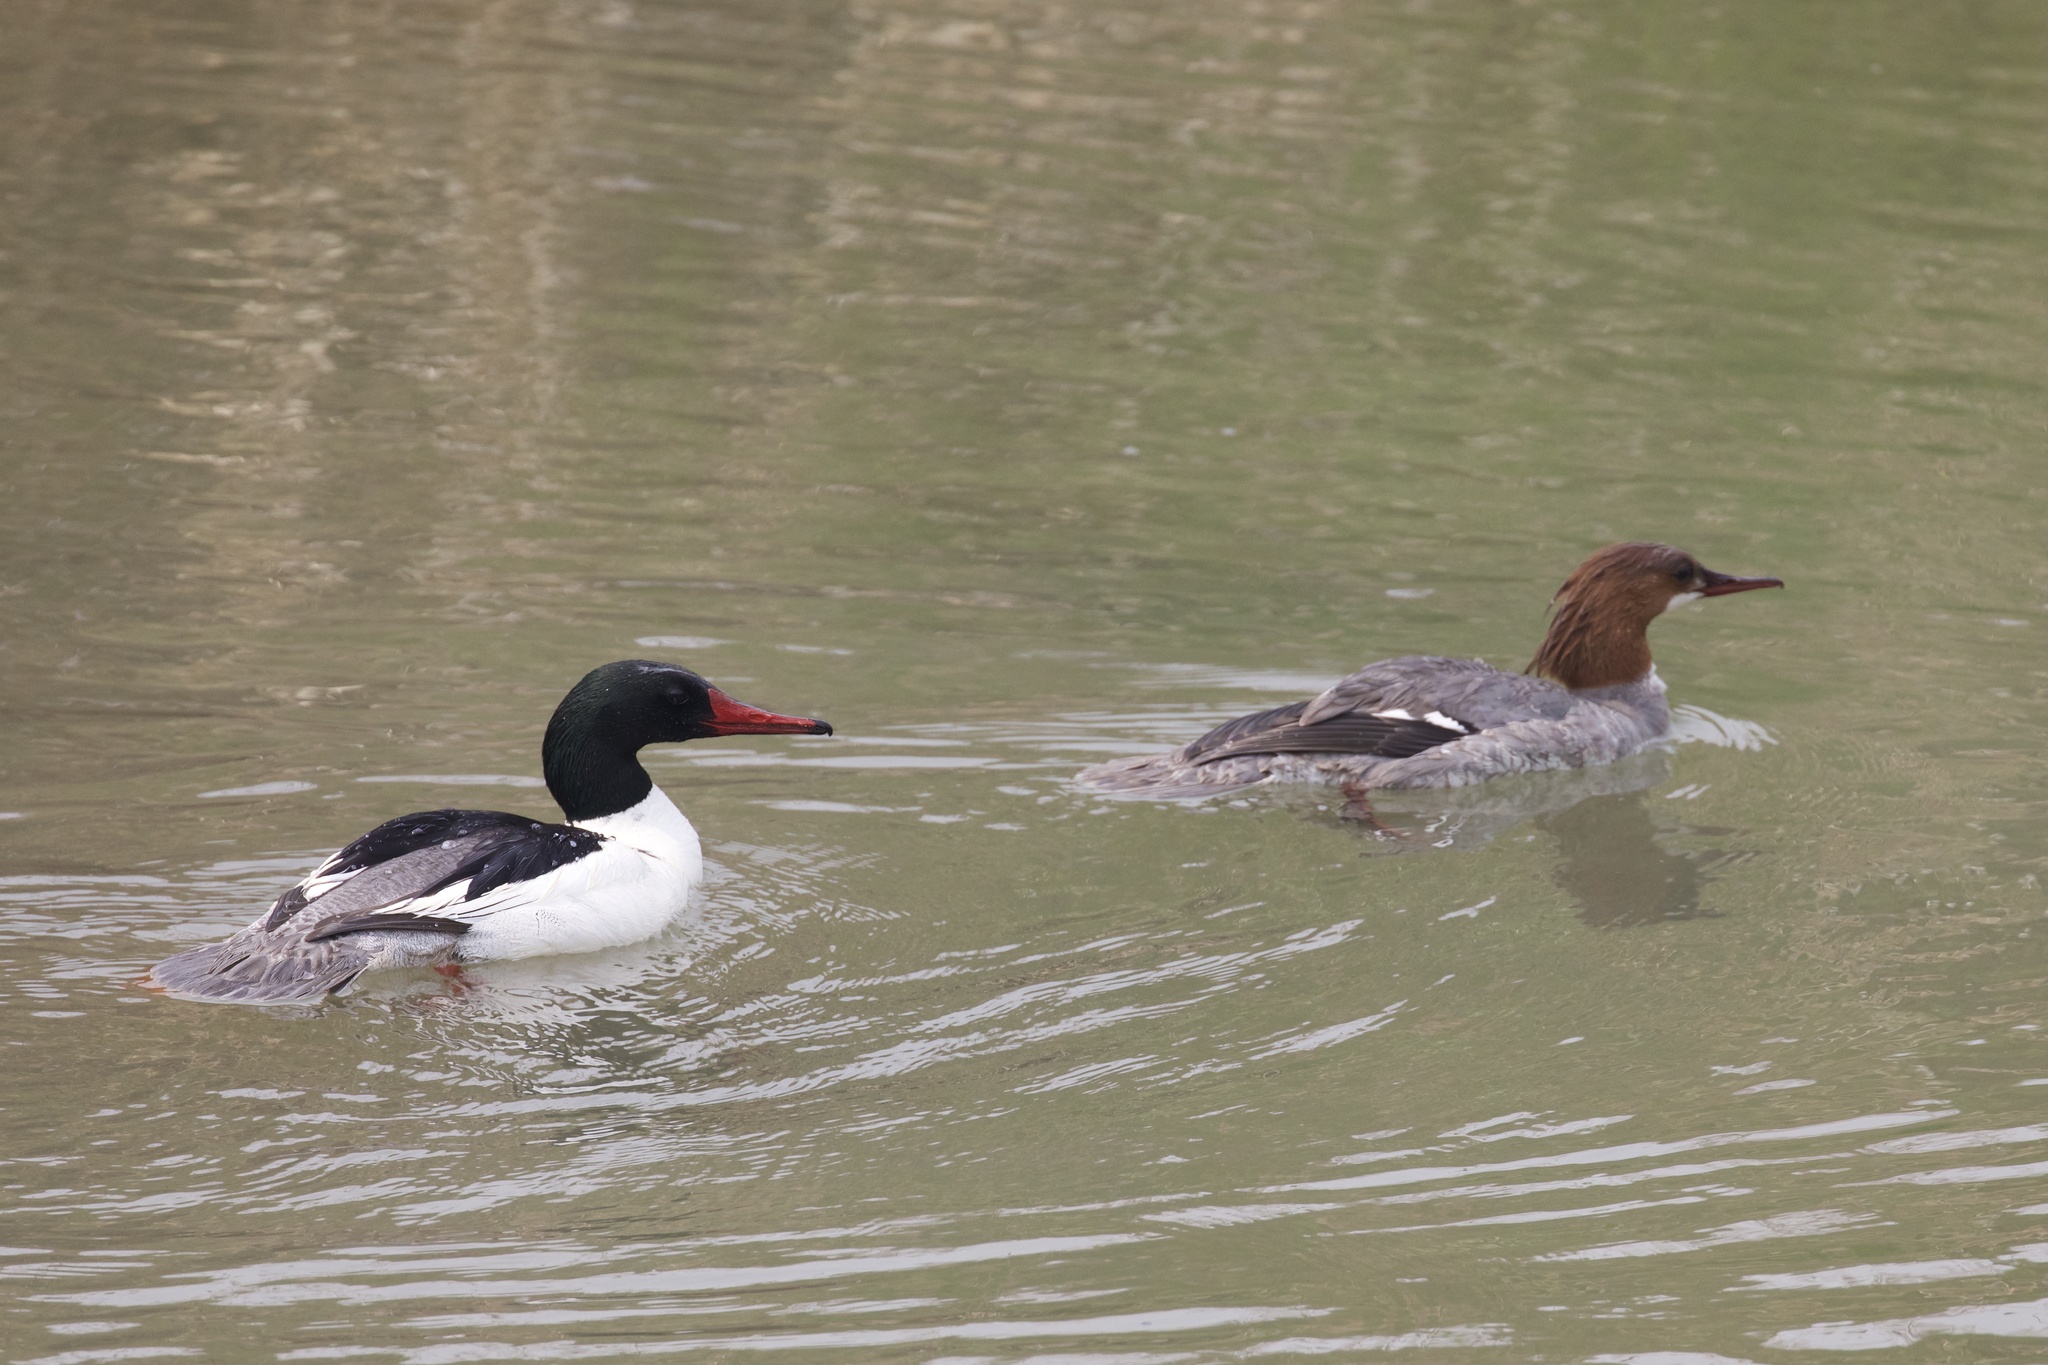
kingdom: Animalia
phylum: Chordata
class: Aves
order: Anseriformes
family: Anatidae
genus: Mergus
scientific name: Mergus merganser
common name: Common merganser
